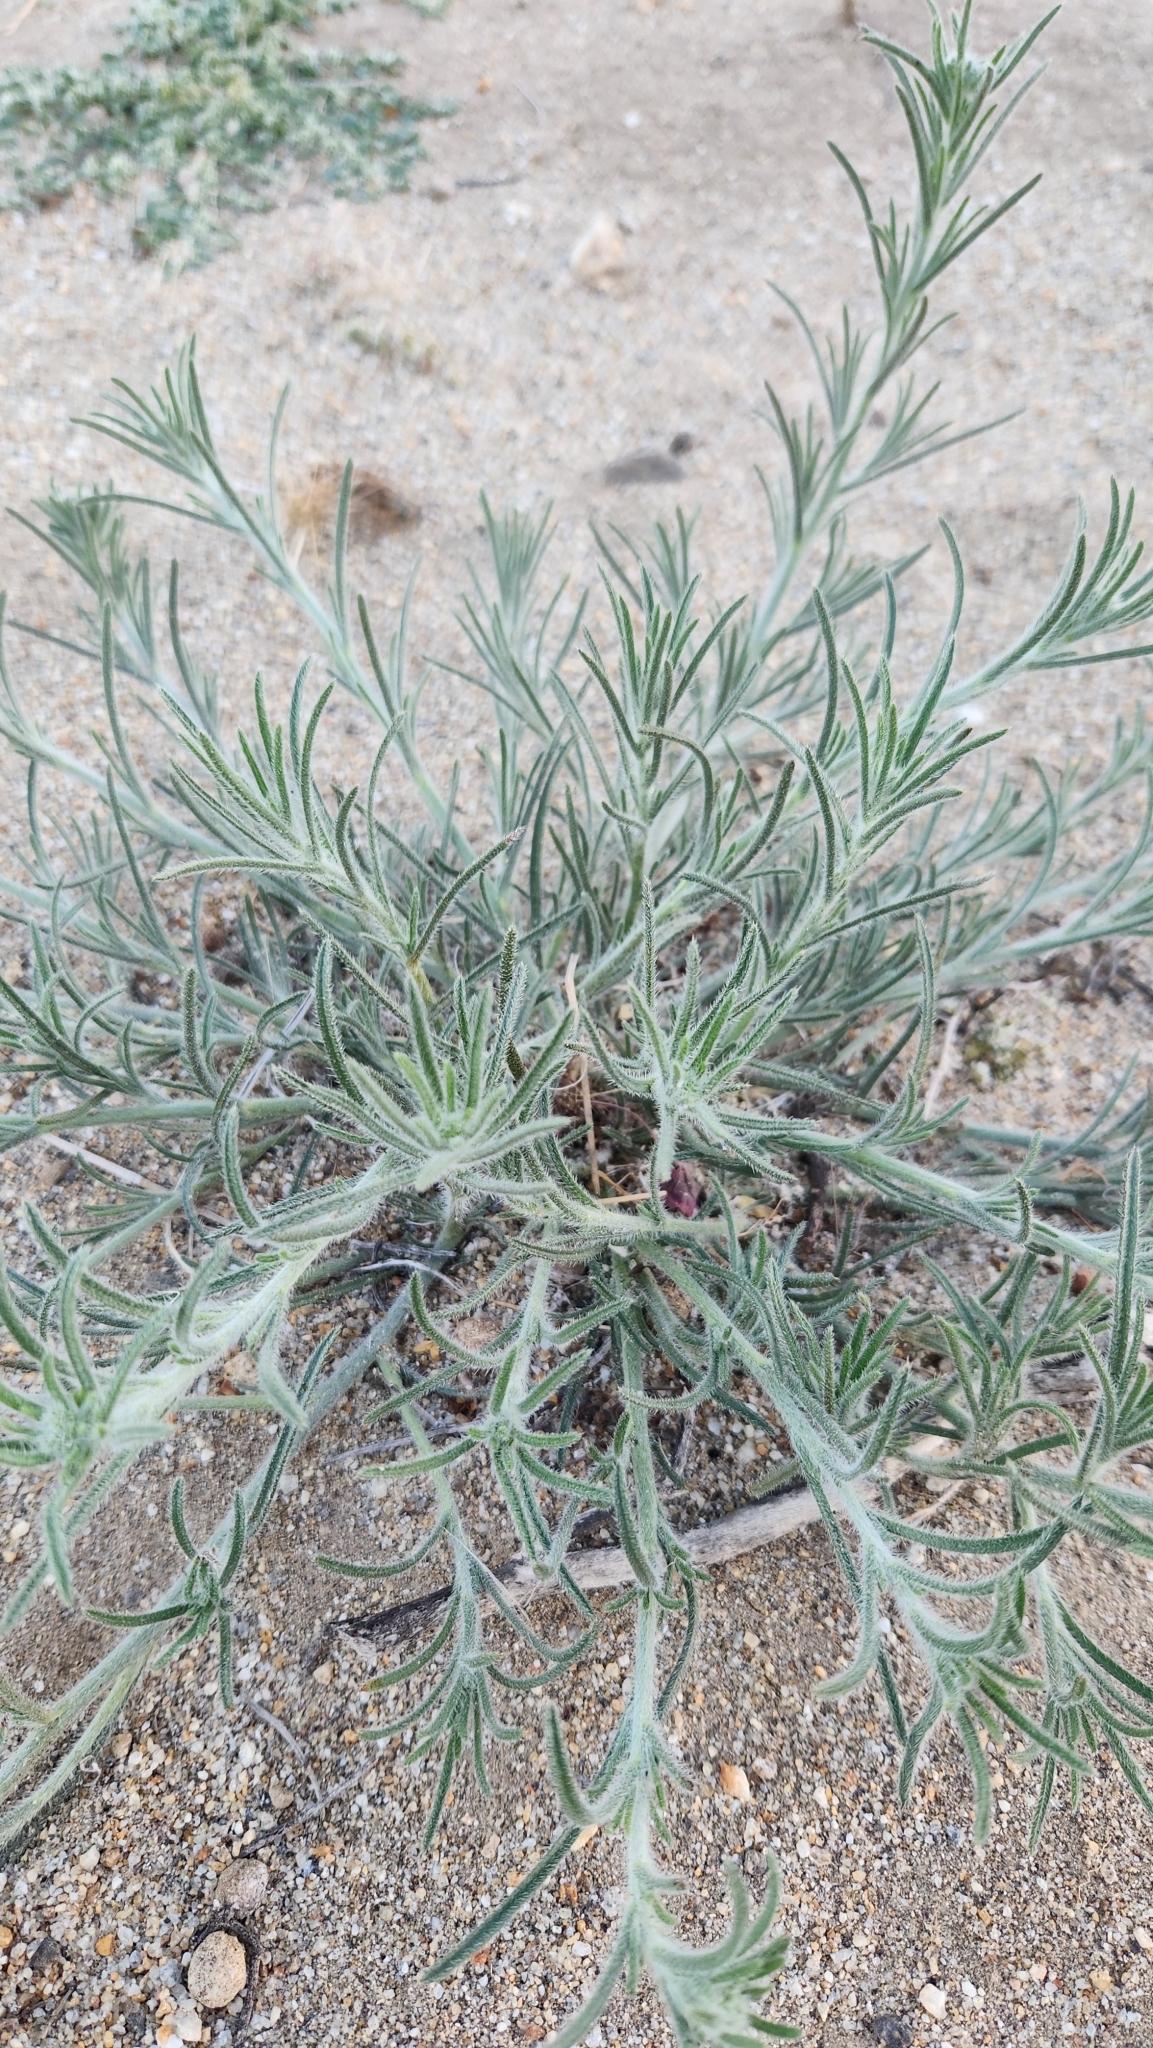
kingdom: Plantae
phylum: Tracheophyta
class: Magnoliopsida
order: Boraginales
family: Boraginaceae
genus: Johnstonella
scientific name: Johnstonella angustifolia
